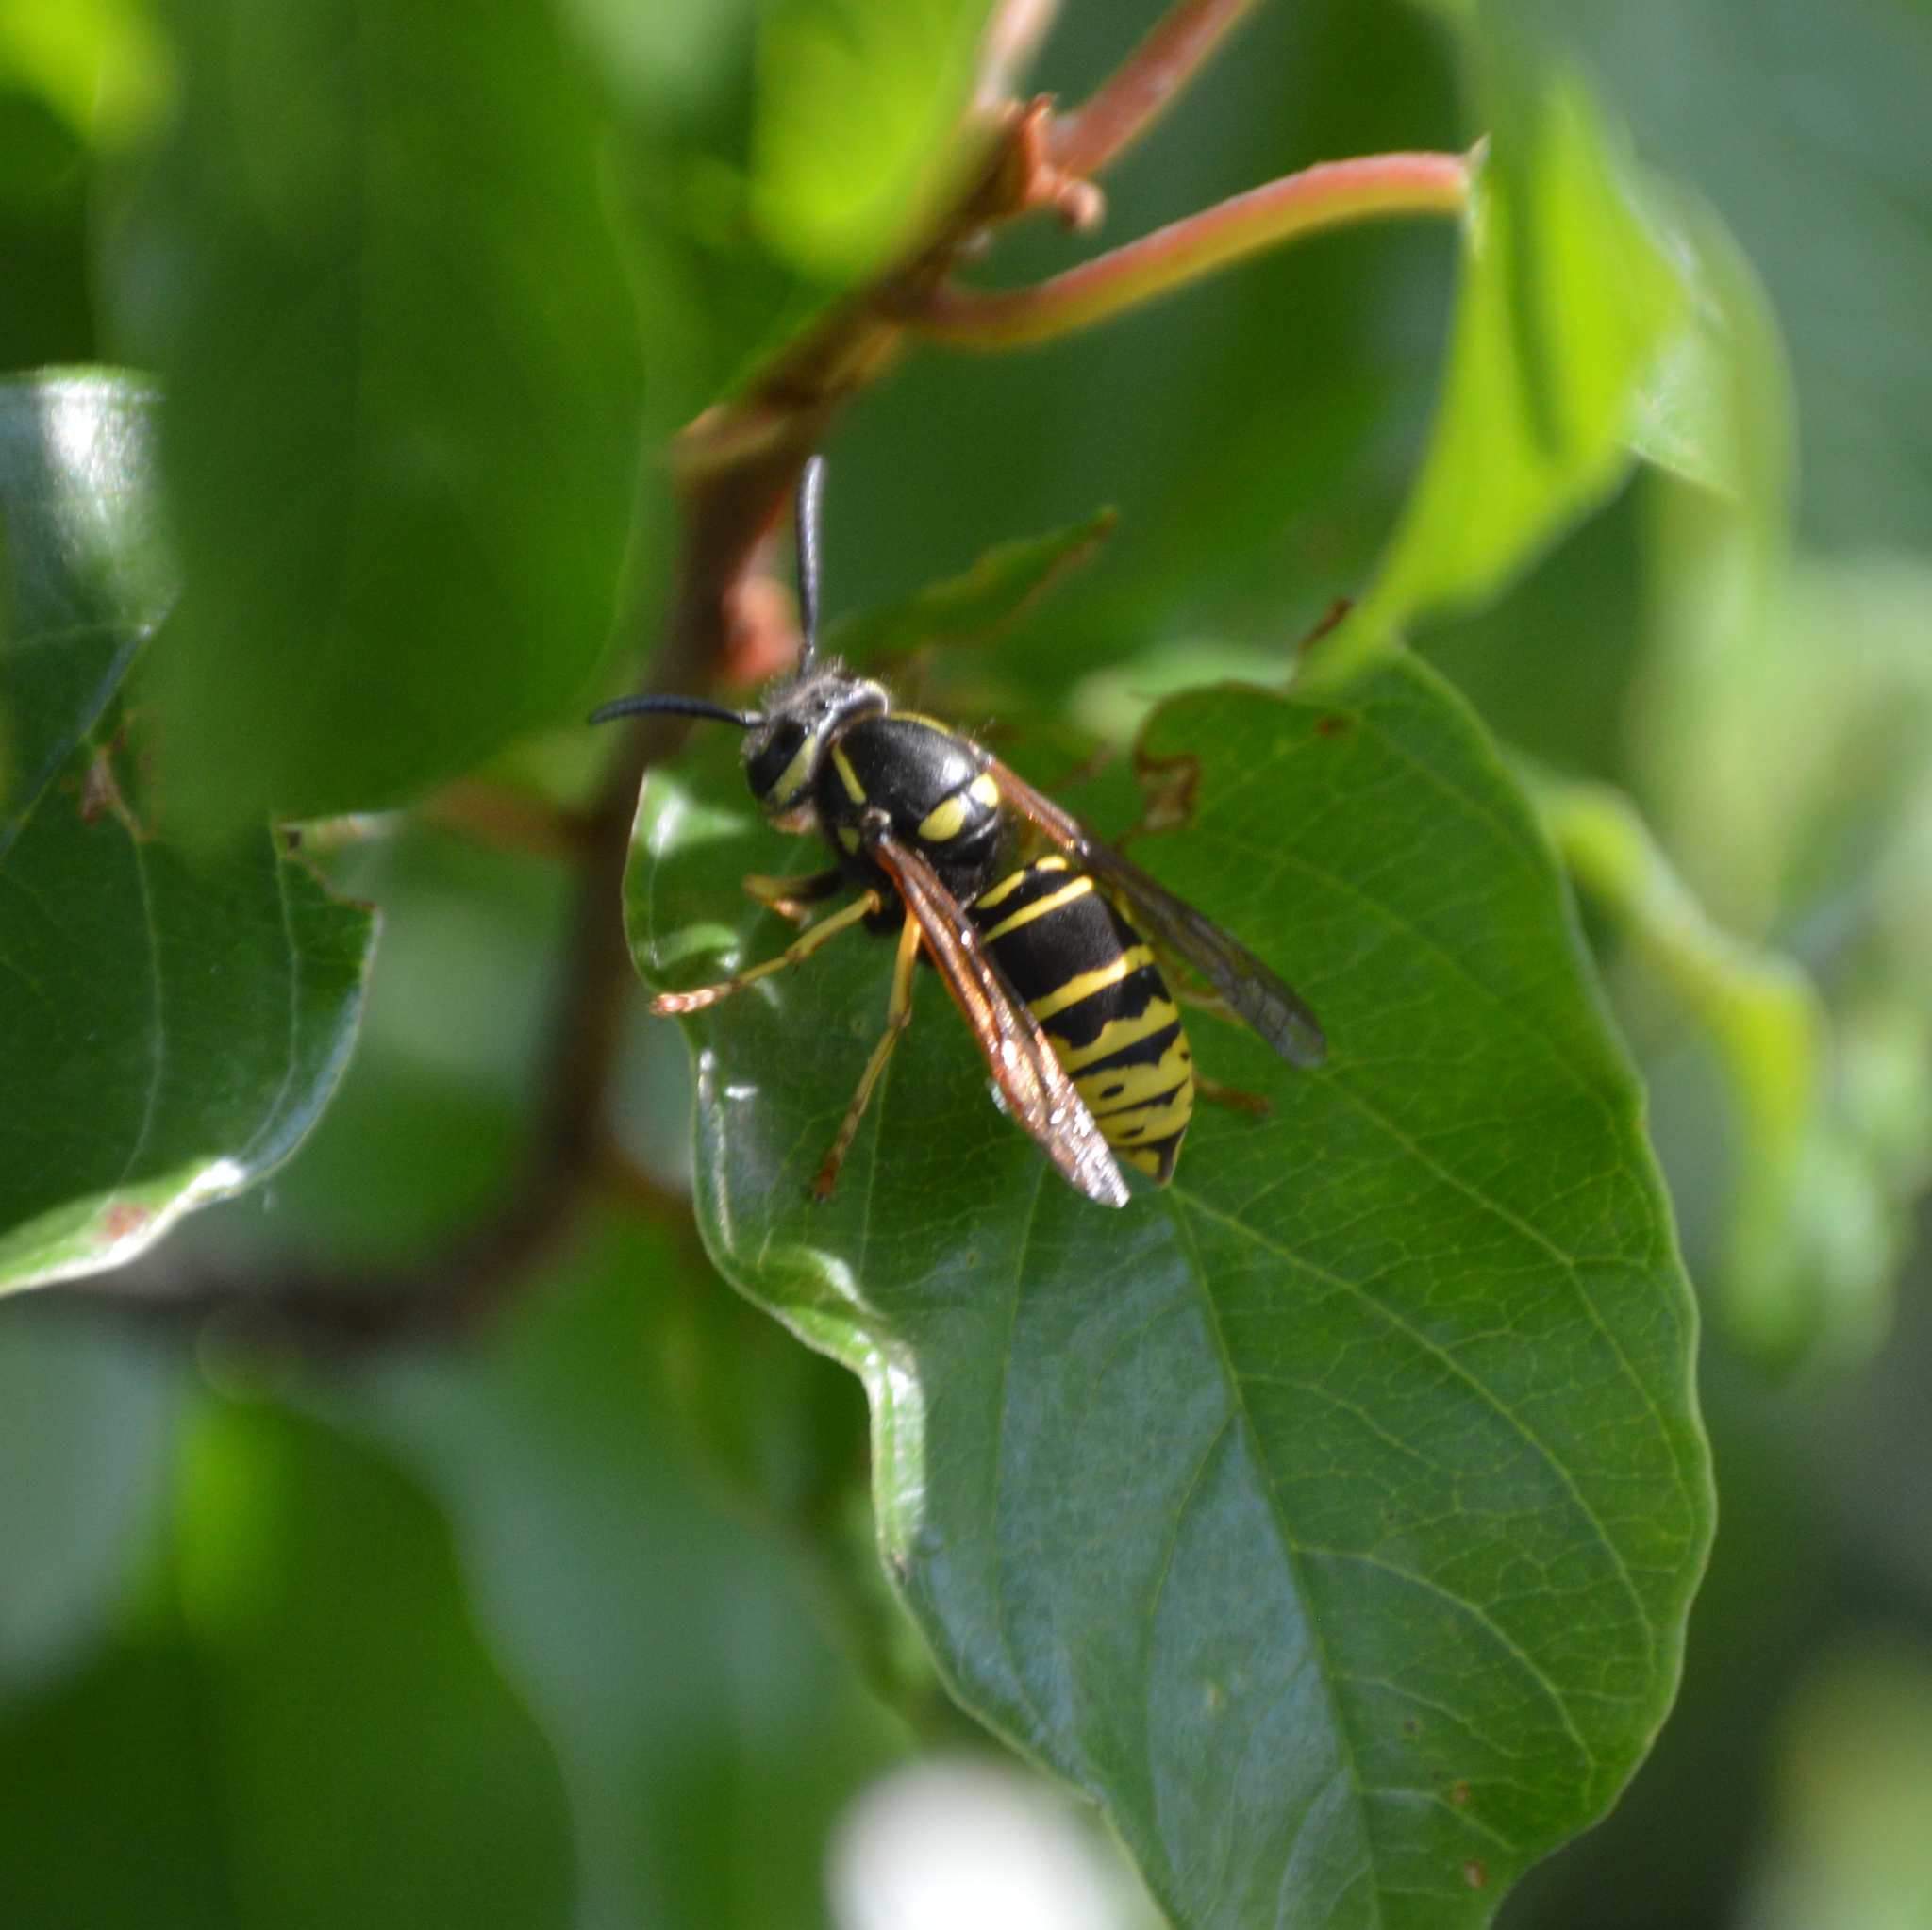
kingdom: Animalia
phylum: Arthropoda
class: Insecta
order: Hymenoptera
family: Vespidae
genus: Vespula
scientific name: Vespula vidua
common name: Widow yellowjacket
